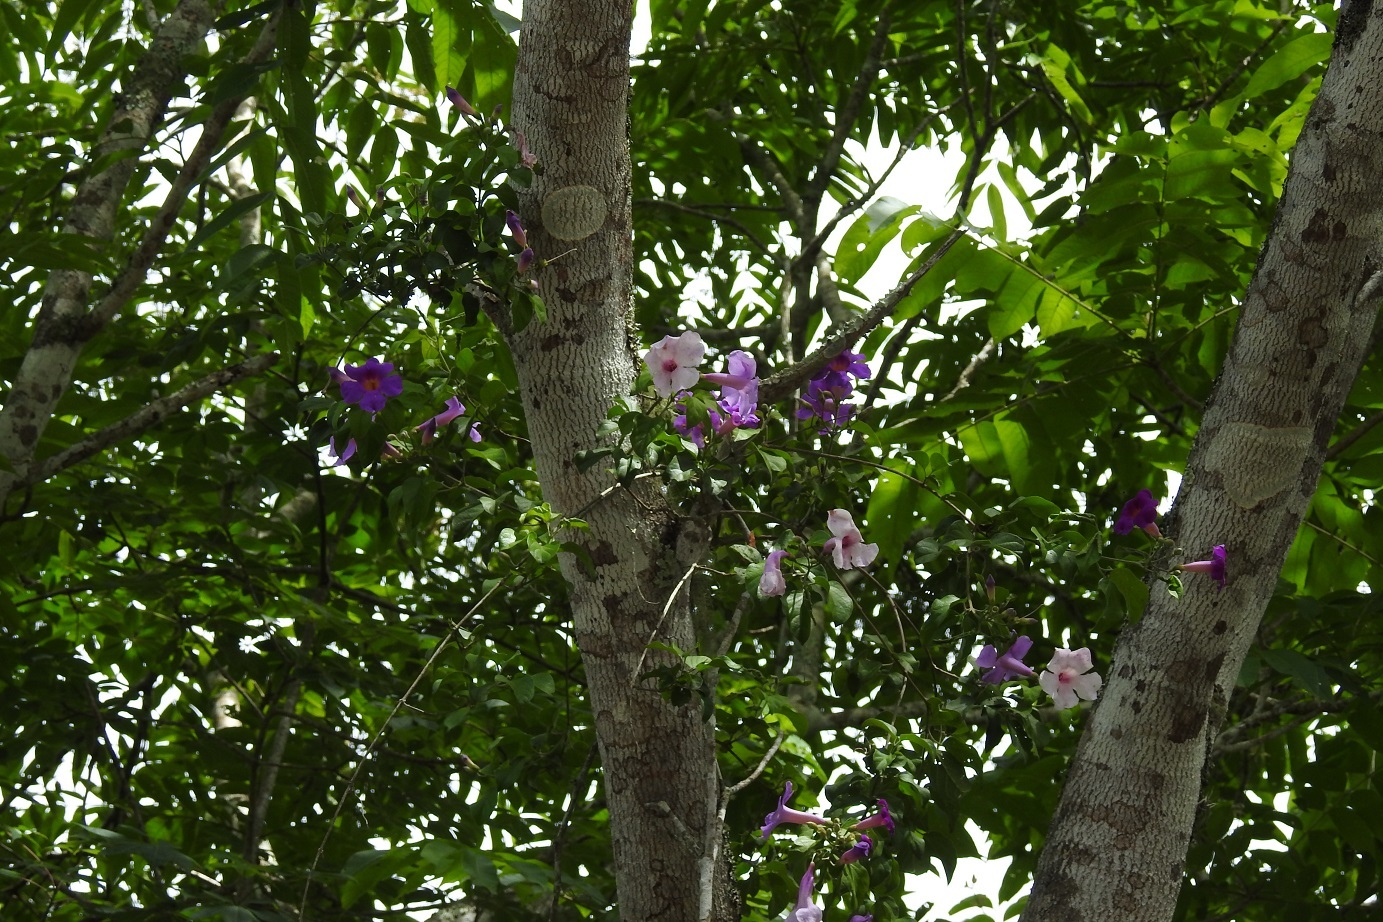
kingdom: Plantae
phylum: Tracheophyta
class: Magnoliopsida
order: Lamiales
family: Bignoniaceae
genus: Amphilophium
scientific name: Amphilophium laxiflorum
